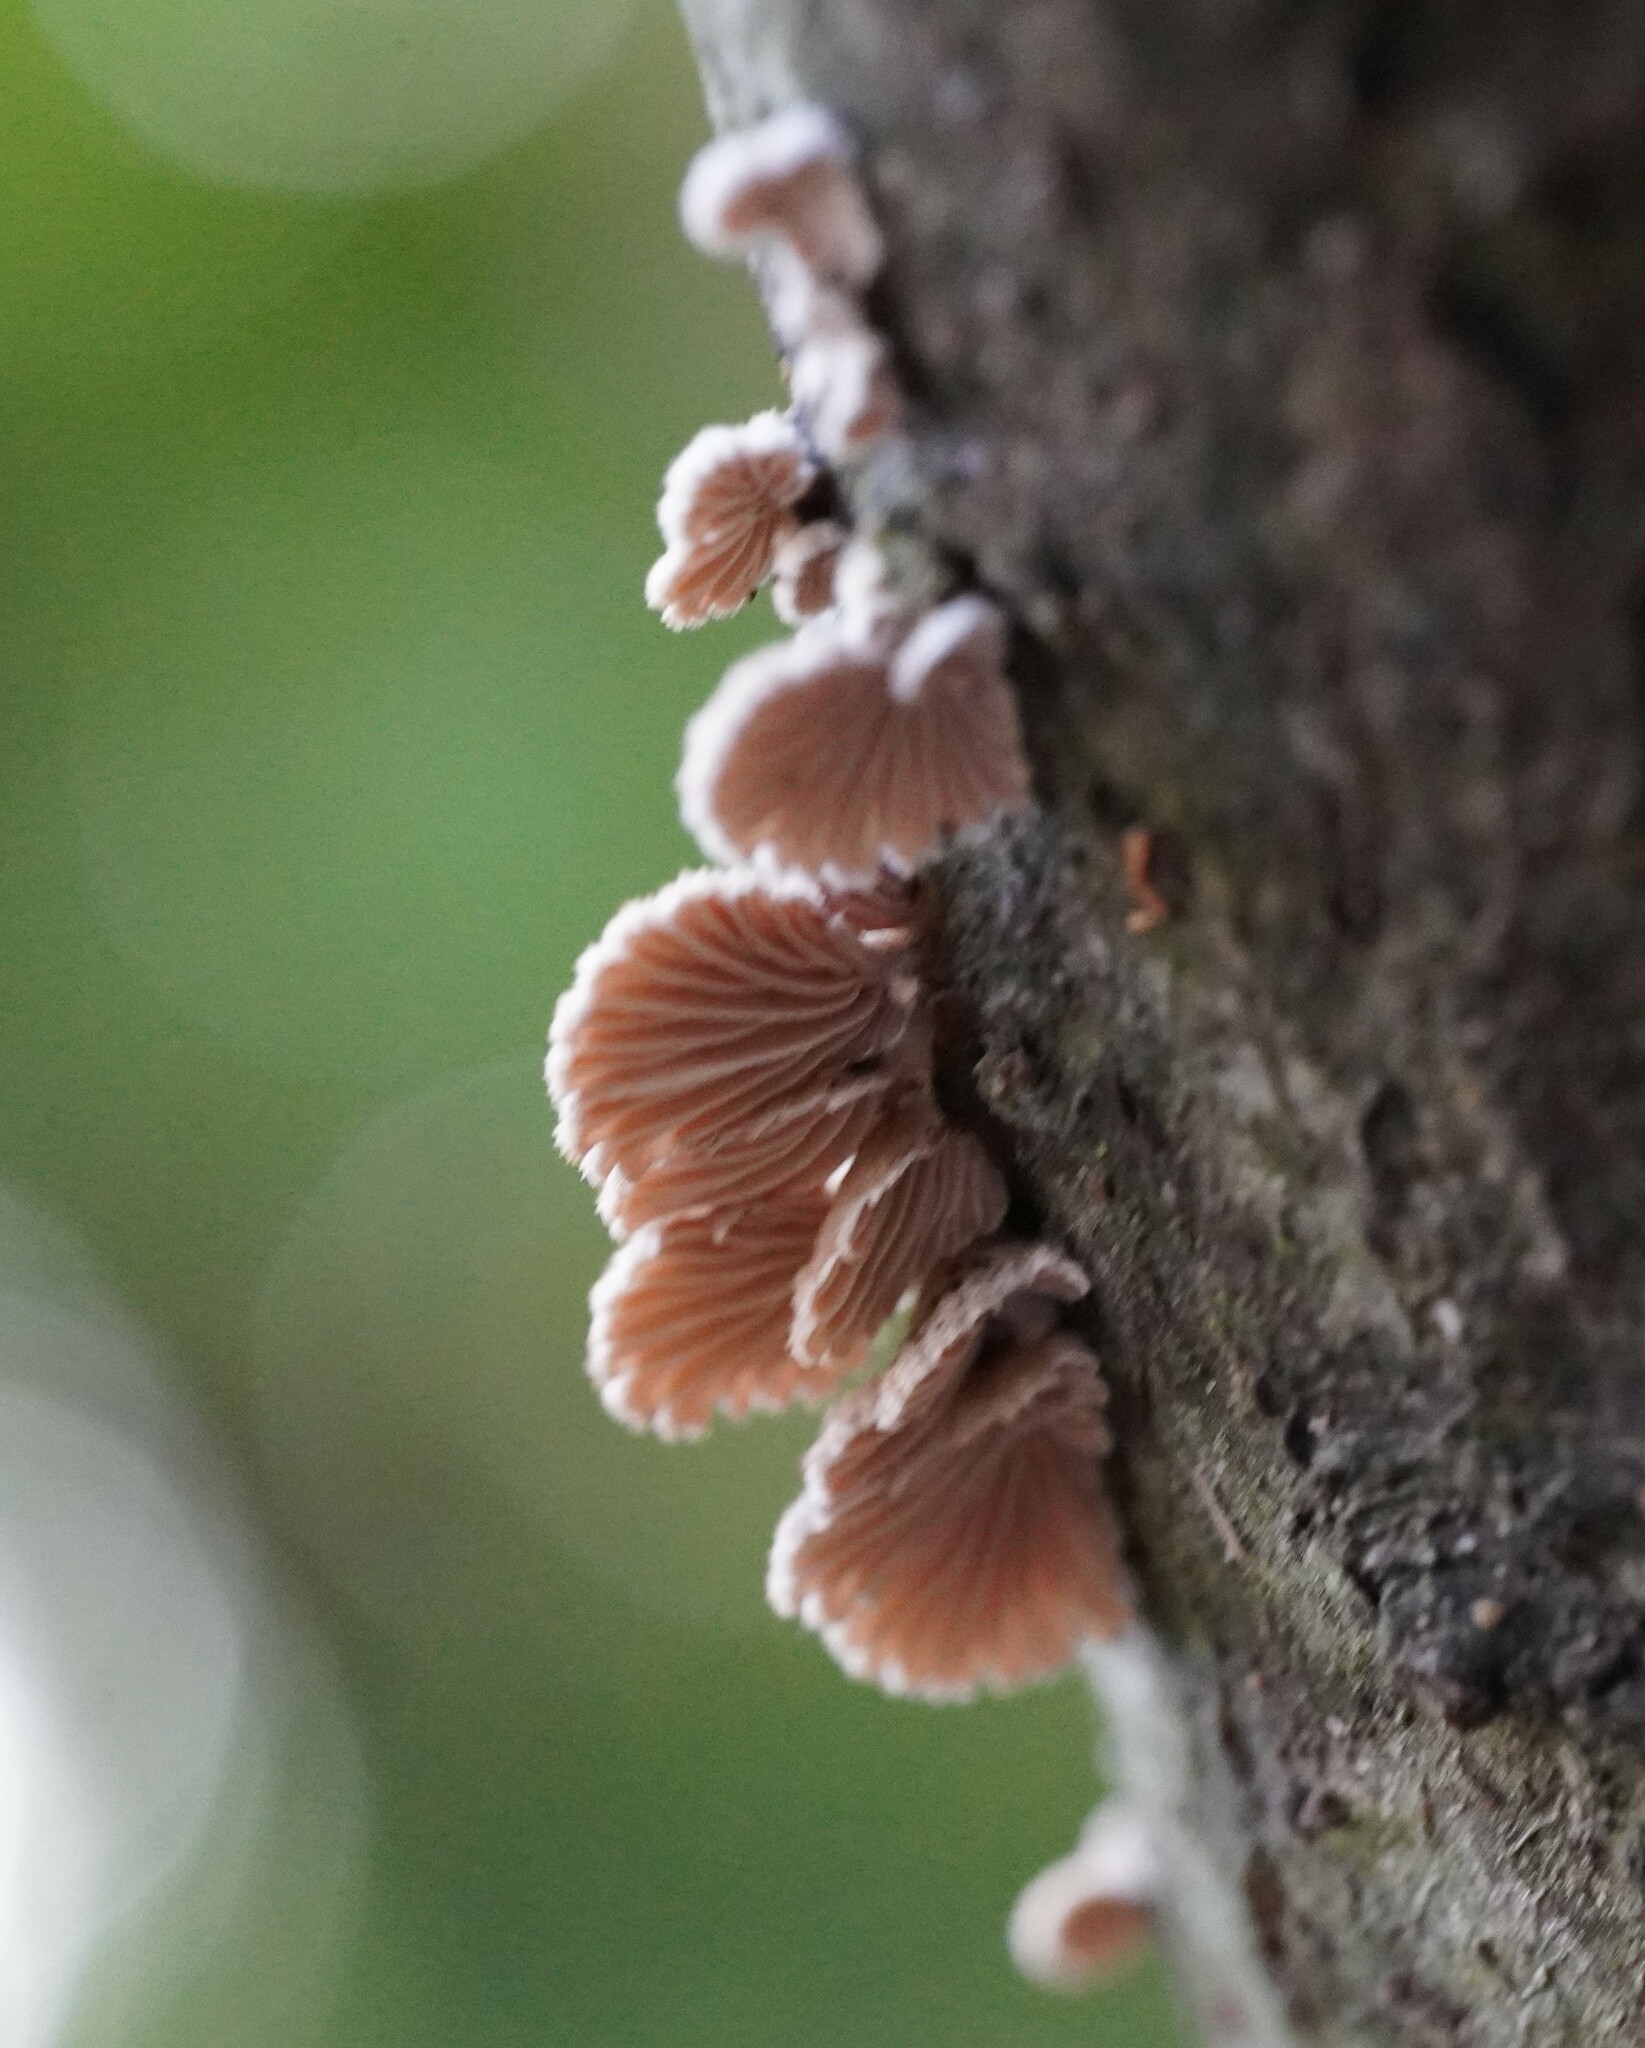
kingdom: Fungi
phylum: Basidiomycota
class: Agaricomycetes
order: Agaricales
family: Schizophyllaceae
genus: Schizophyllum
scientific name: Schizophyllum commune
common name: Common porecrust
